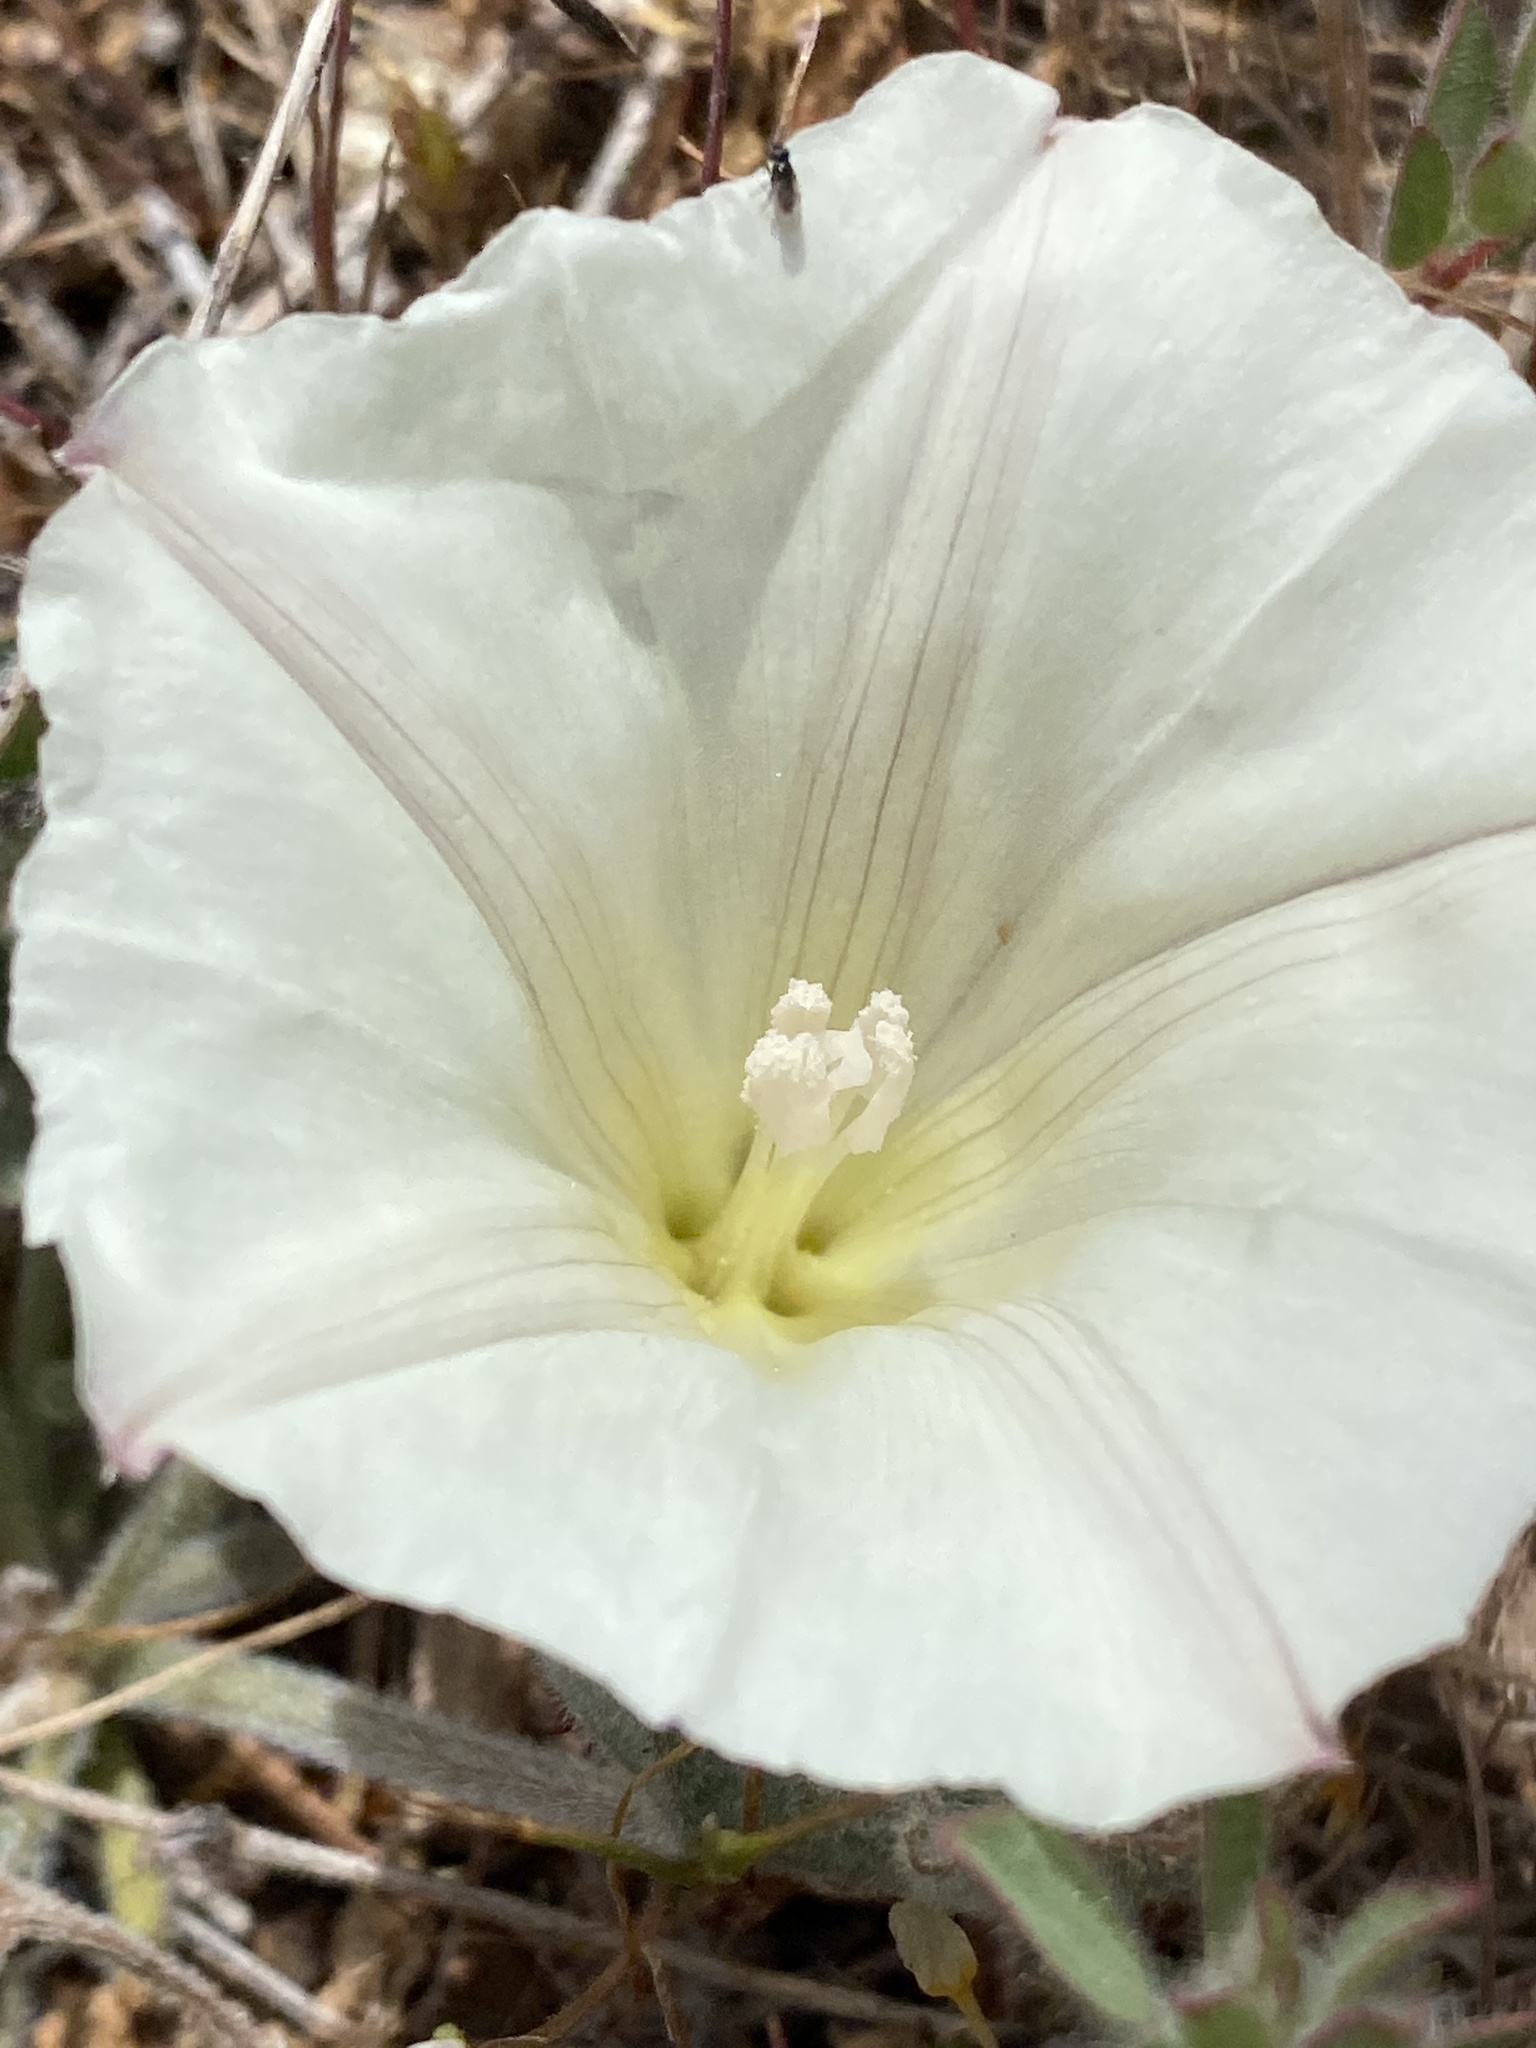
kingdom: Plantae
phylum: Tracheophyta
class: Magnoliopsida
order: Solanales
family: Convolvulaceae
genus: Calystegia
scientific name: Calystegia collina
